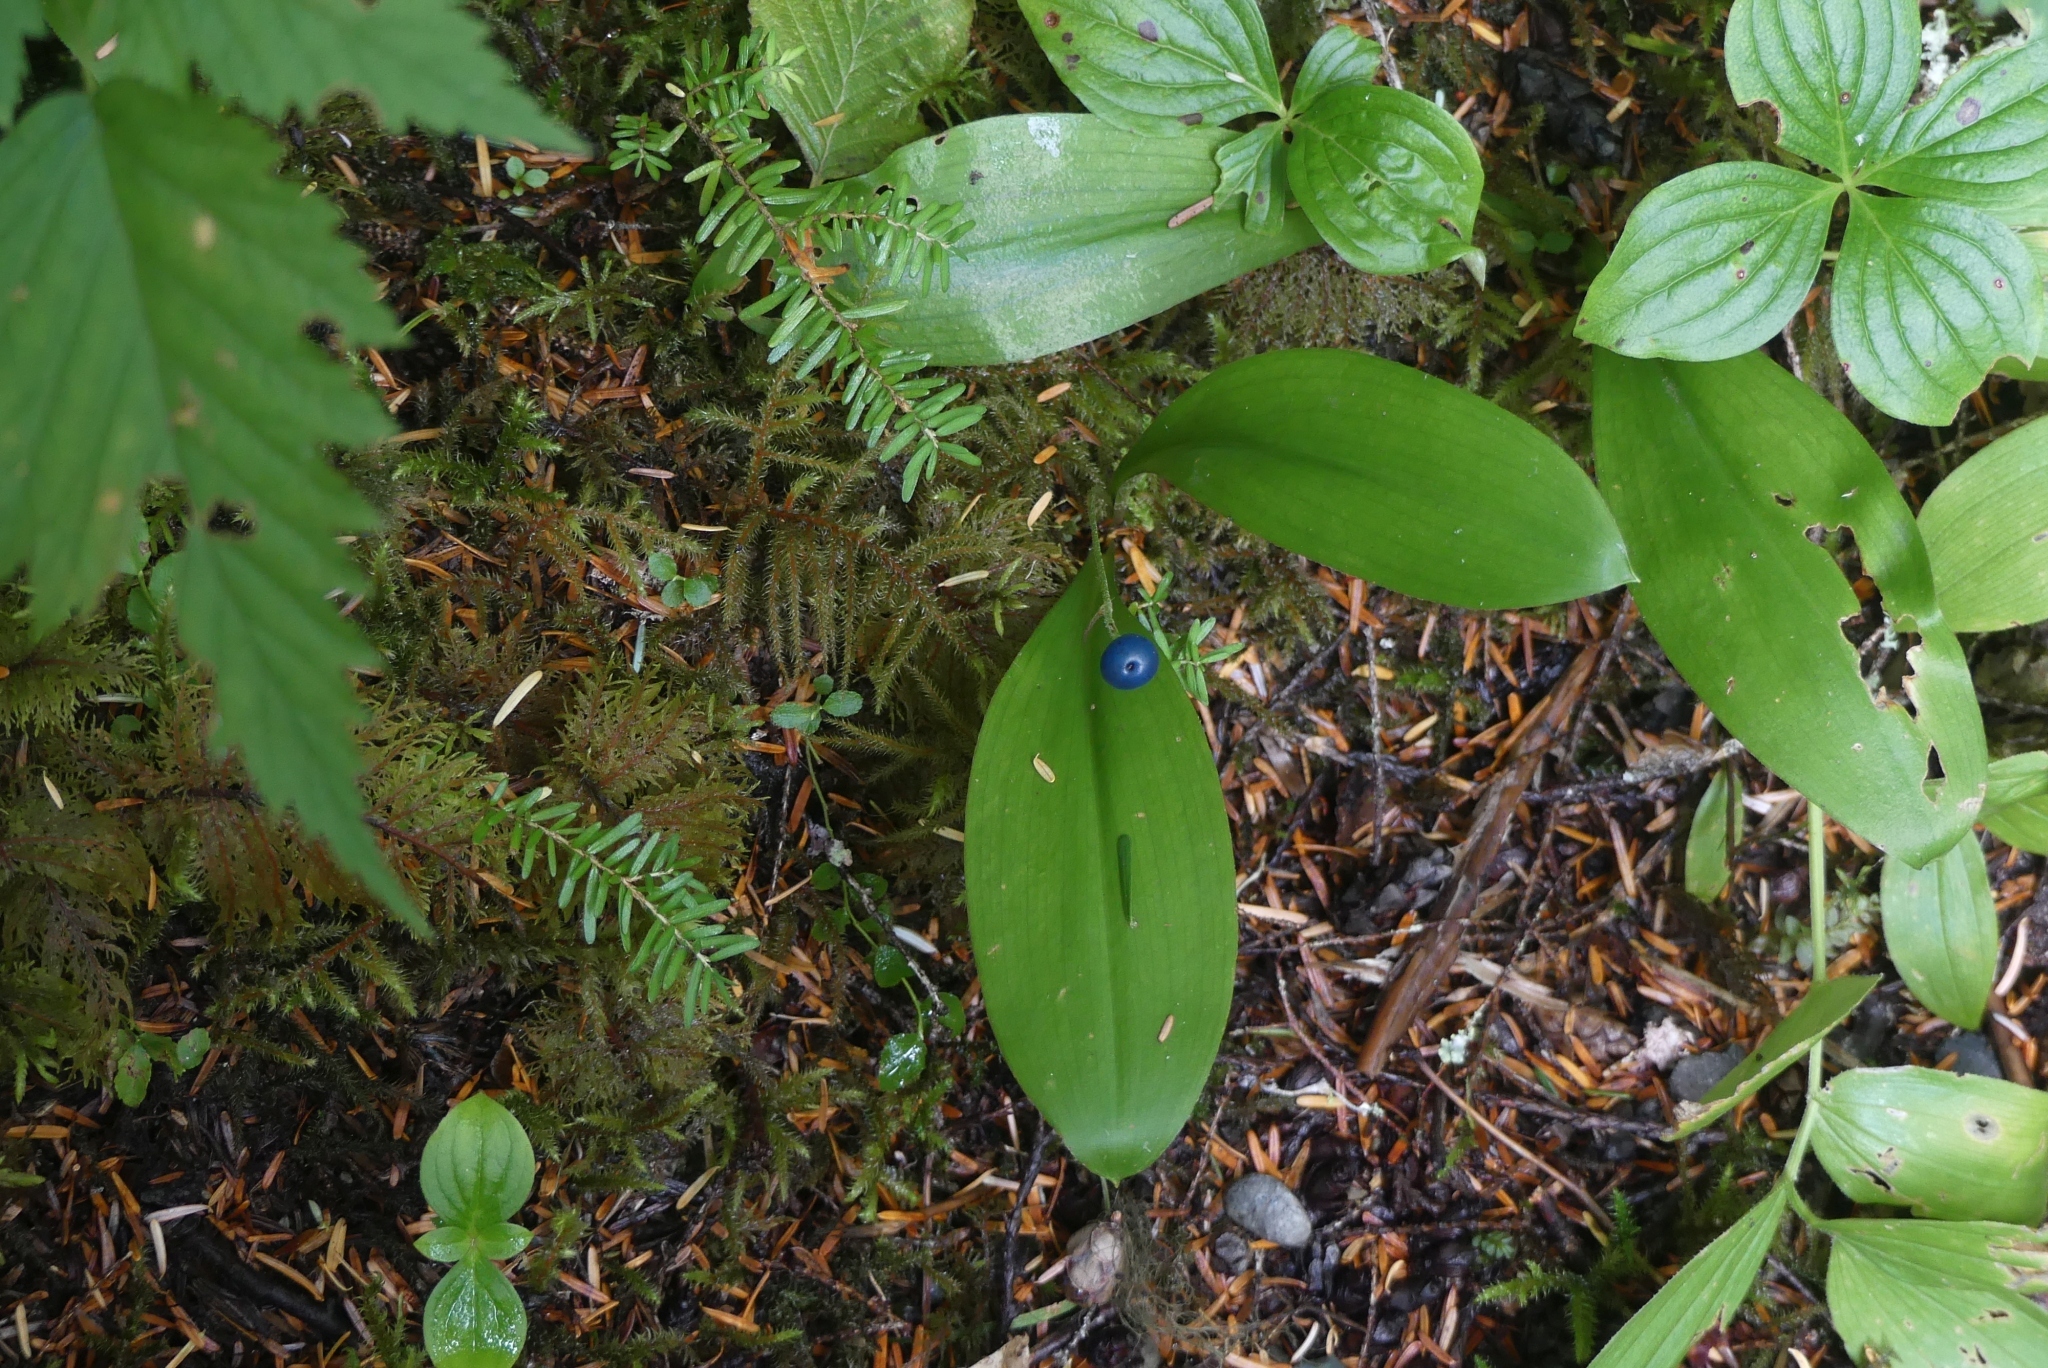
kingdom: Plantae
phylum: Tracheophyta
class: Liliopsida
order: Liliales
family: Liliaceae
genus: Clintonia
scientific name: Clintonia uniflora
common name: Queen's cup
